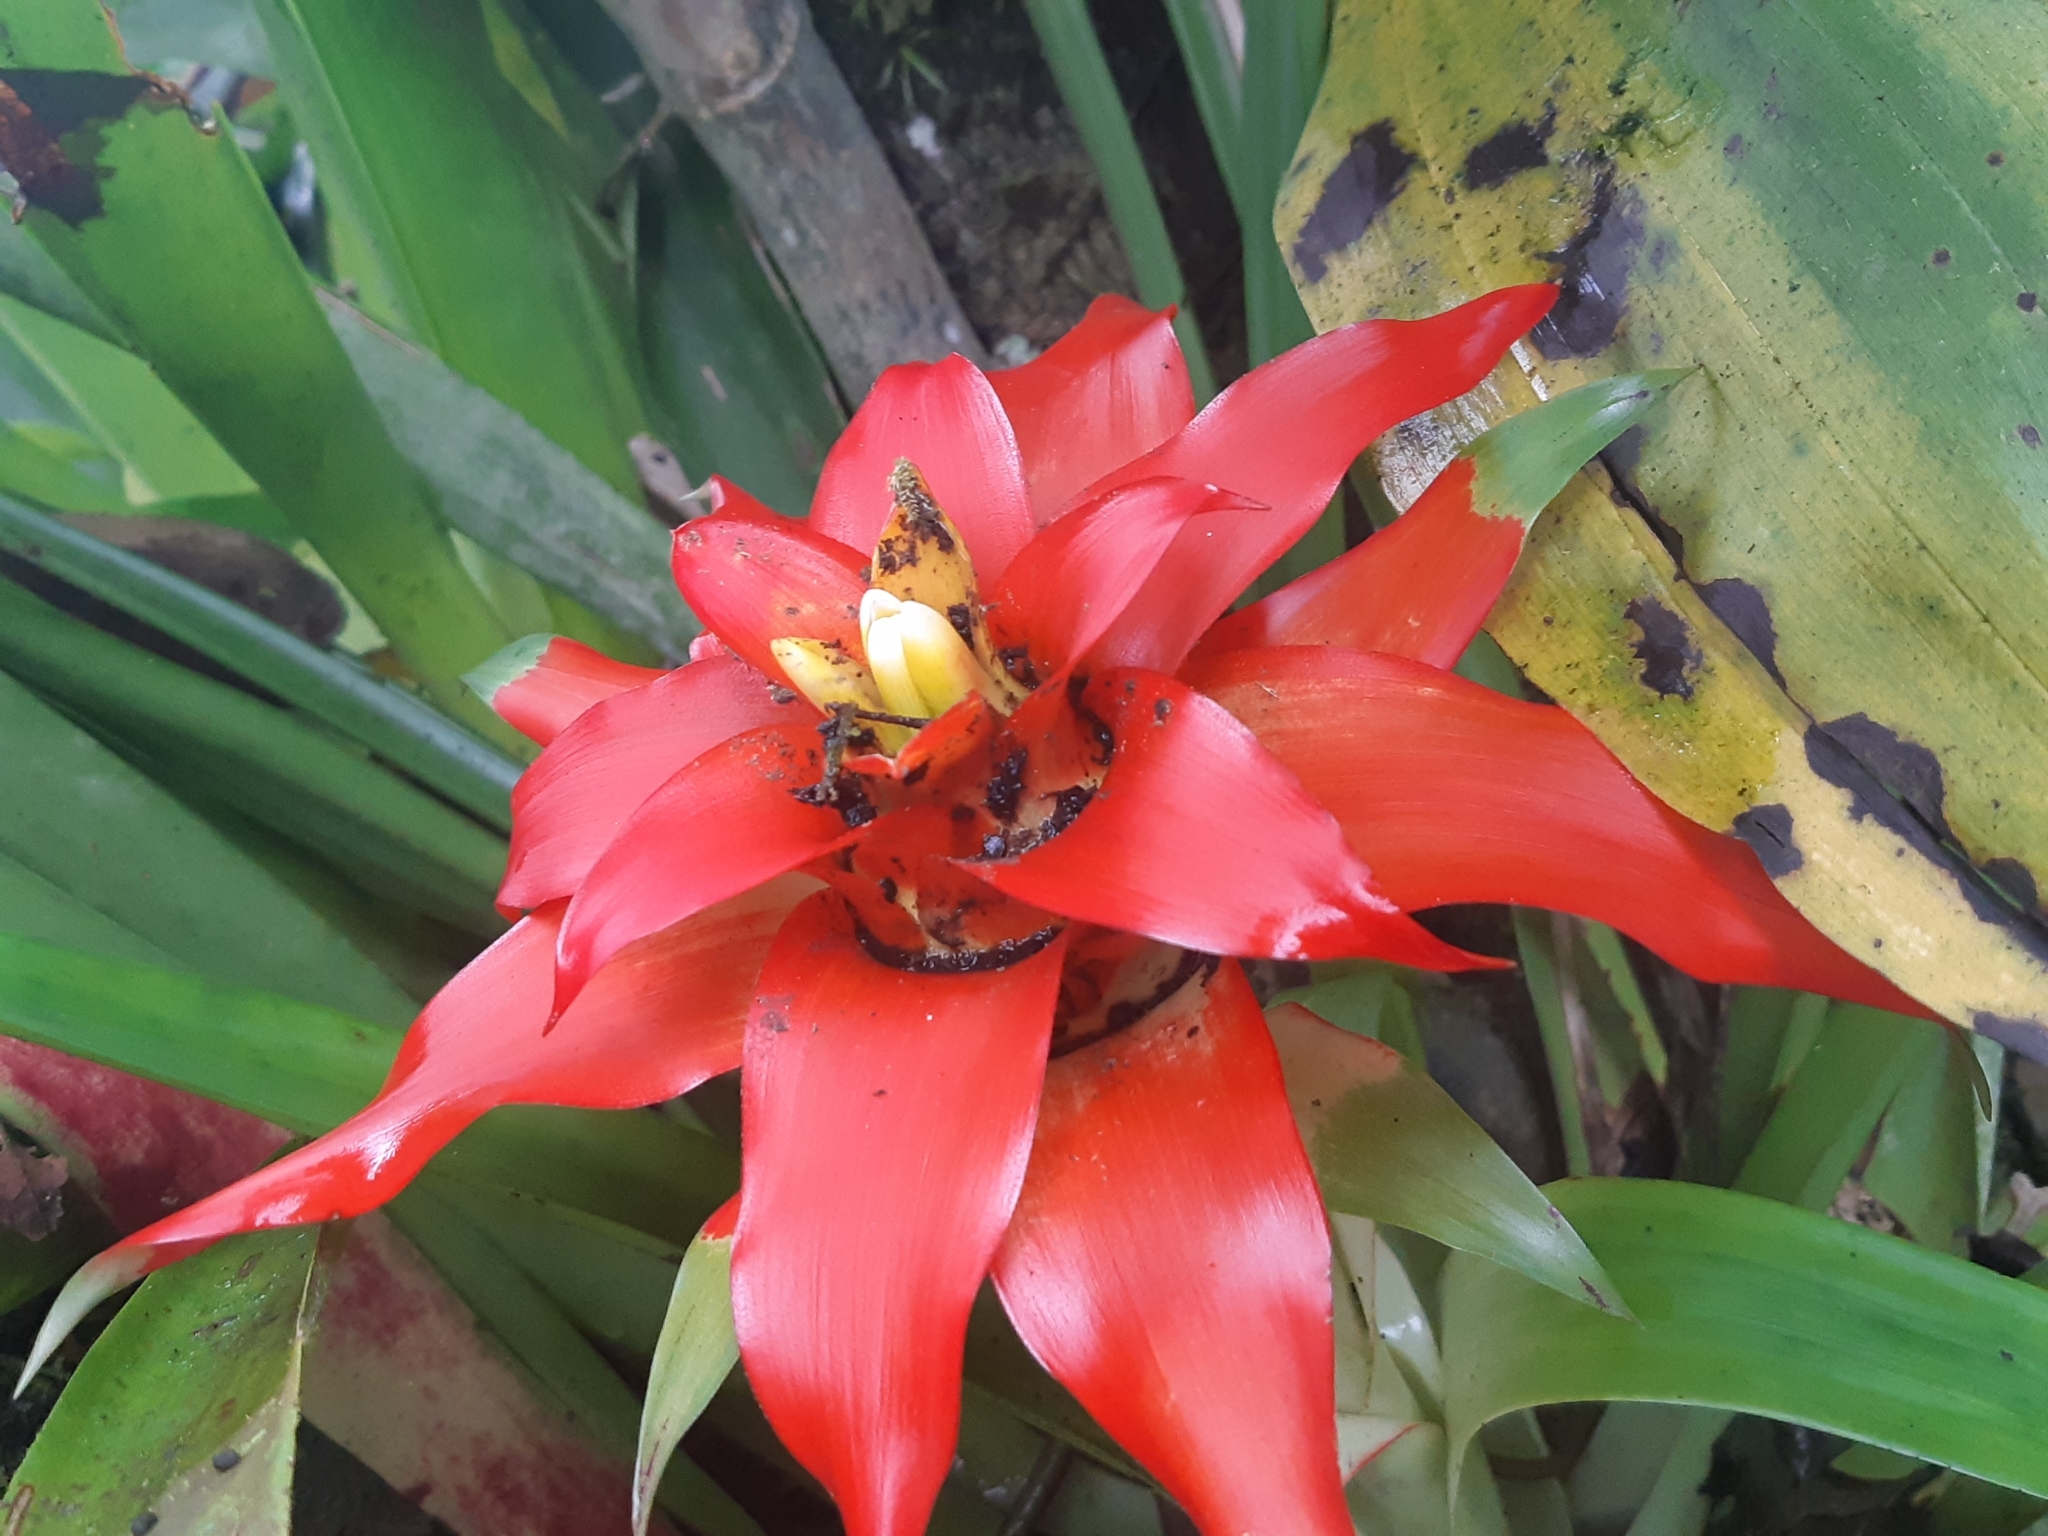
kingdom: Plantae
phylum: Tracheophyta
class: Liliopsida
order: Poales
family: Bromeliaceae
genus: Guzmania
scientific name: Guzmania lingulata
